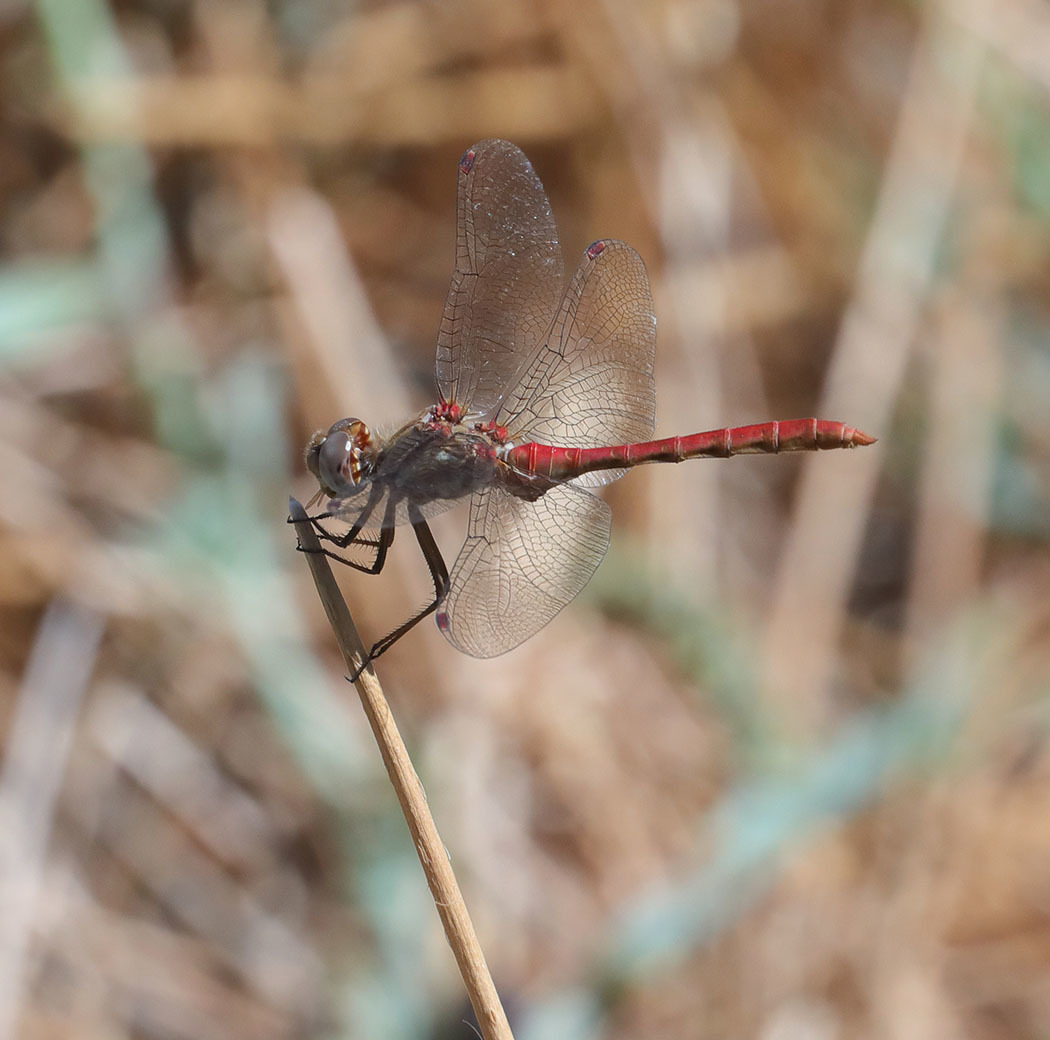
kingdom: Animalia
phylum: Arthropoda
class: Insecta
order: Odonata
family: Libellulidae
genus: Sympetrum
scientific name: Sympetrum pallipes
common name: Striped meadowhawk
